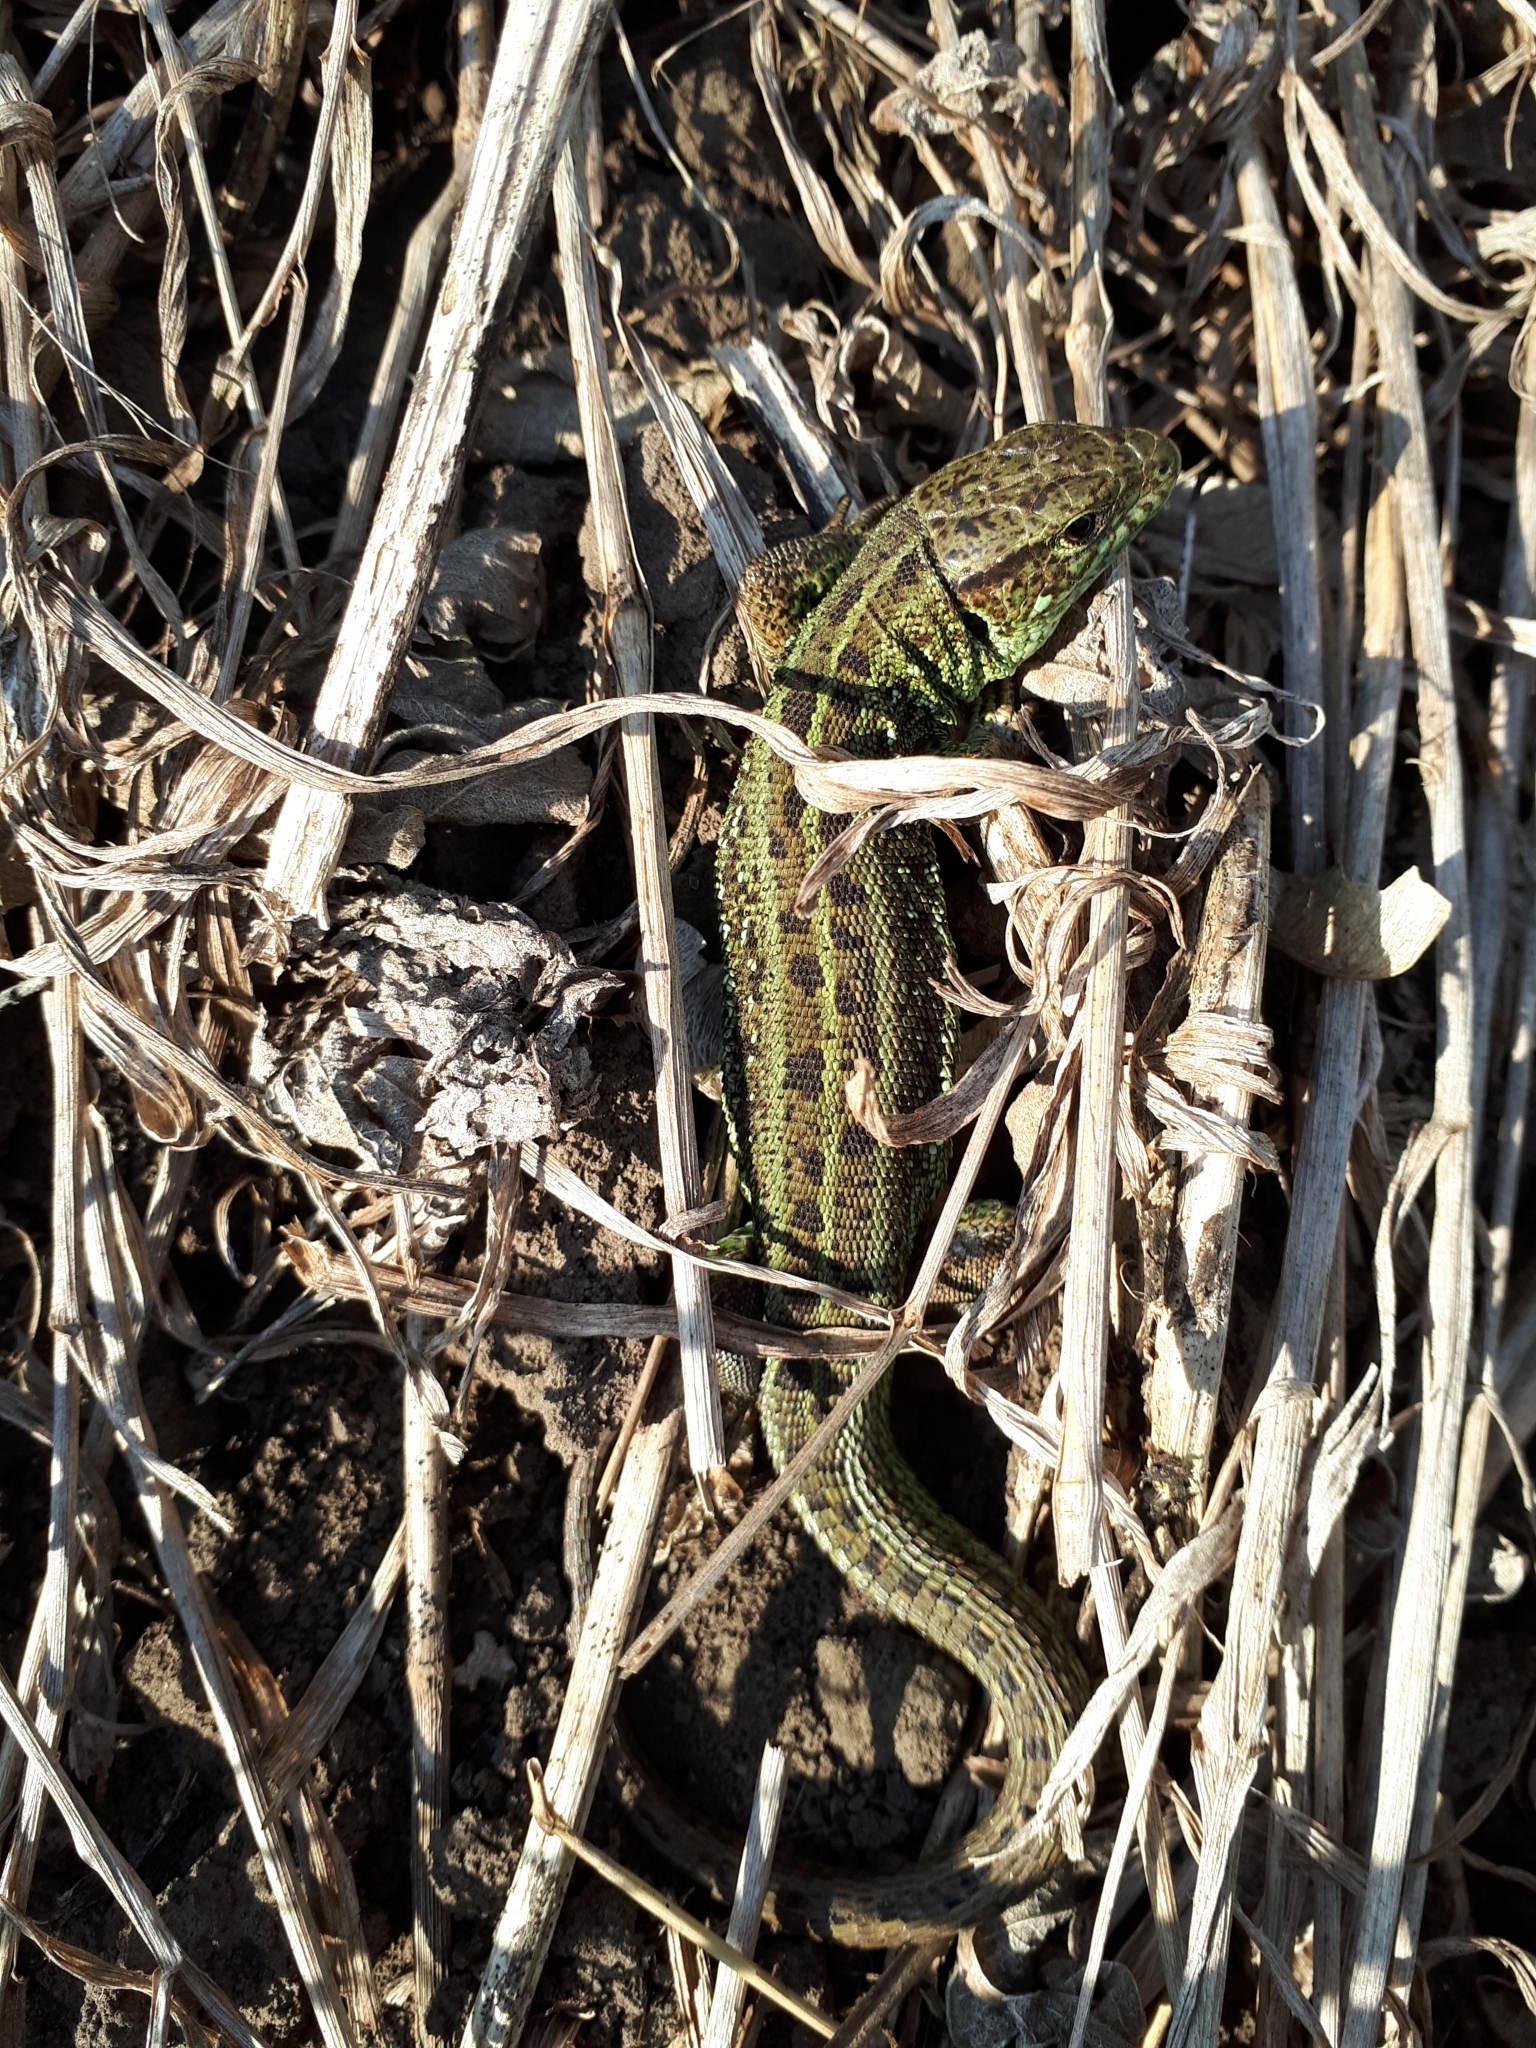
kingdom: Animalia
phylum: Chordata
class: Squamata
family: Lacertidae
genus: Lacerta
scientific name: Lacerta agilis
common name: Sand lizard
